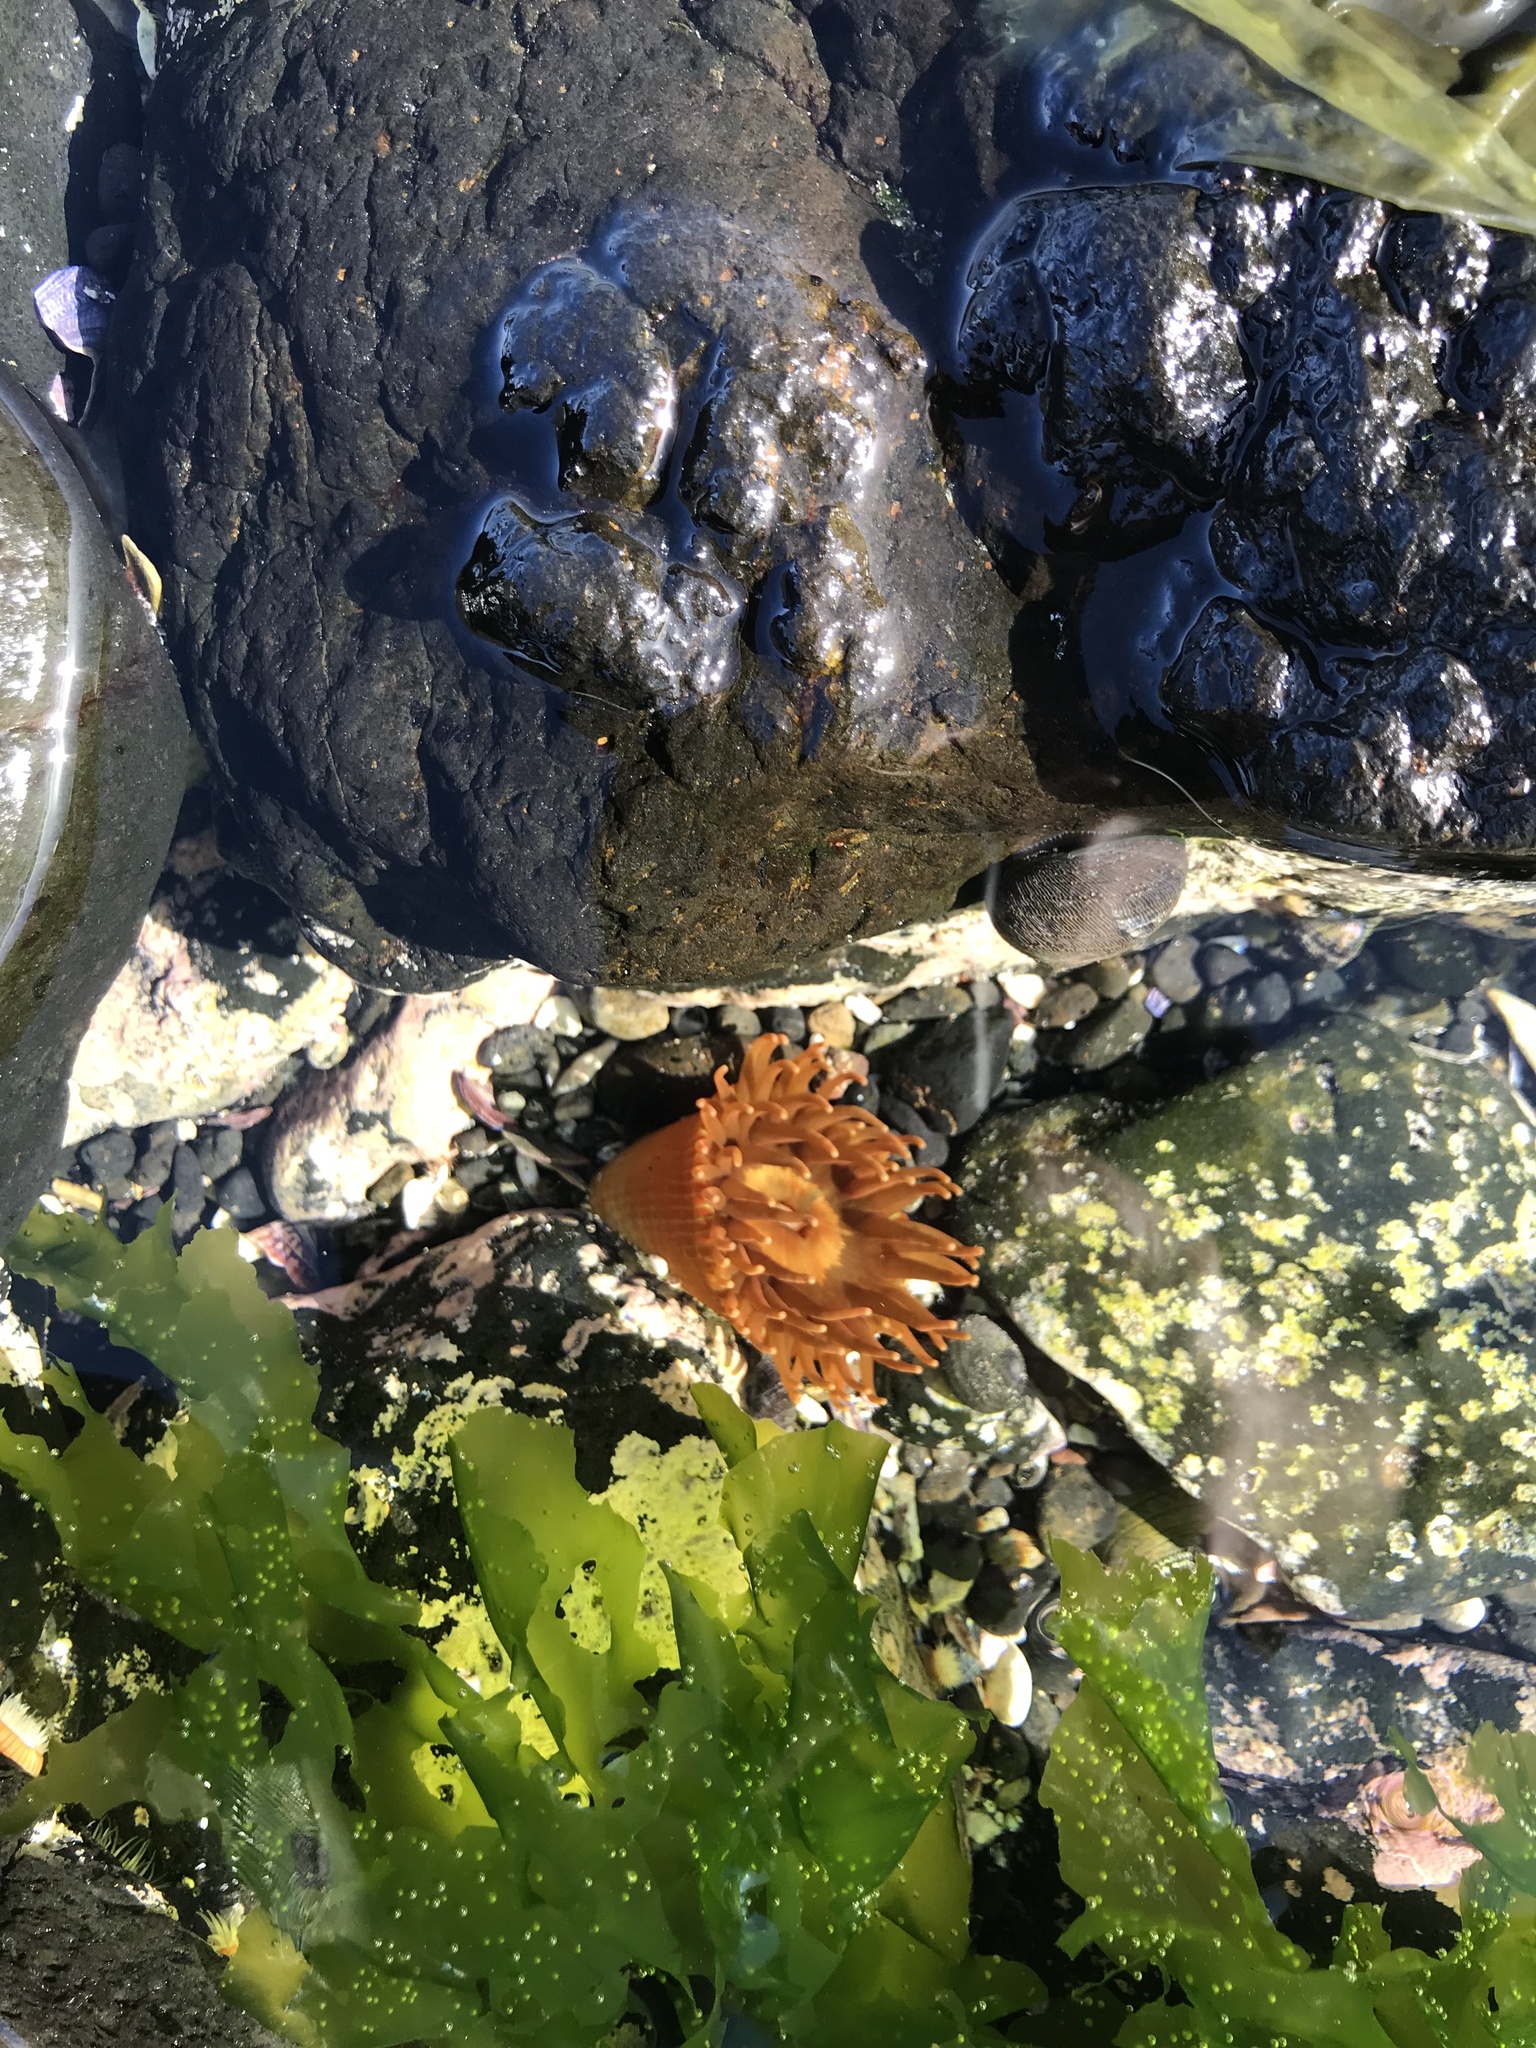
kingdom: Animalia
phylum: Cnidaria
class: Anthozoa
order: Actiniaria
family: Actiniidae
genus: Epiactis
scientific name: Epiactis thompsoni
